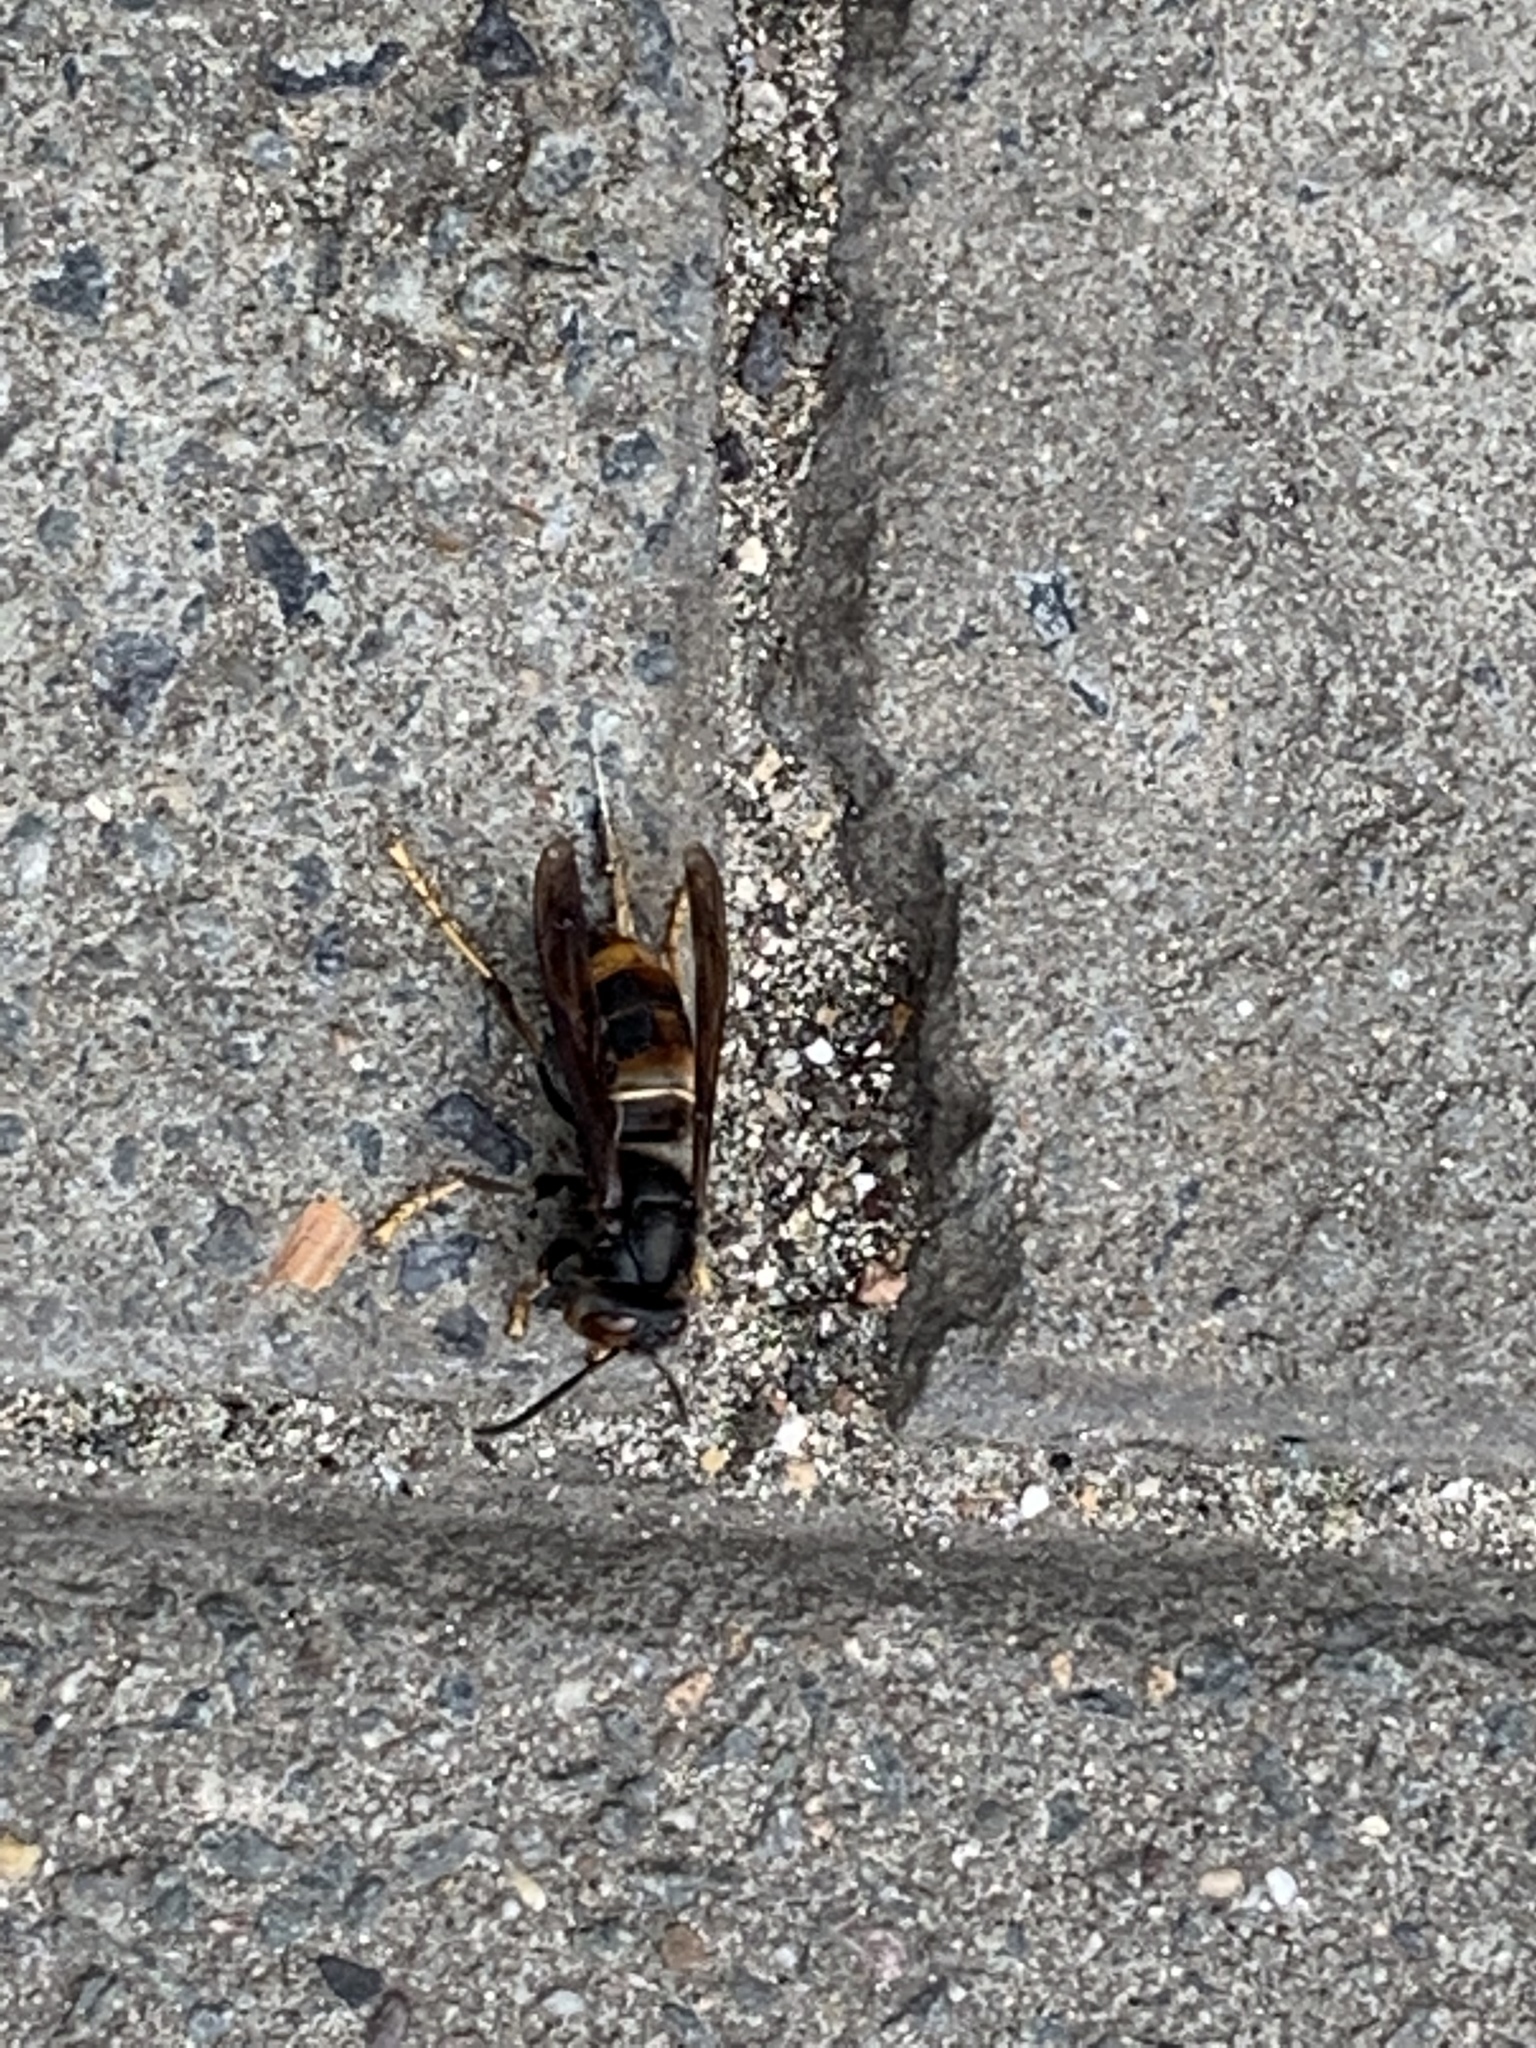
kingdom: Animalia
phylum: Arthropoda
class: Insecta
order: Hymenoptera
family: Vespidae
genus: Vespa
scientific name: Vespa velutina
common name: Asian hornet
